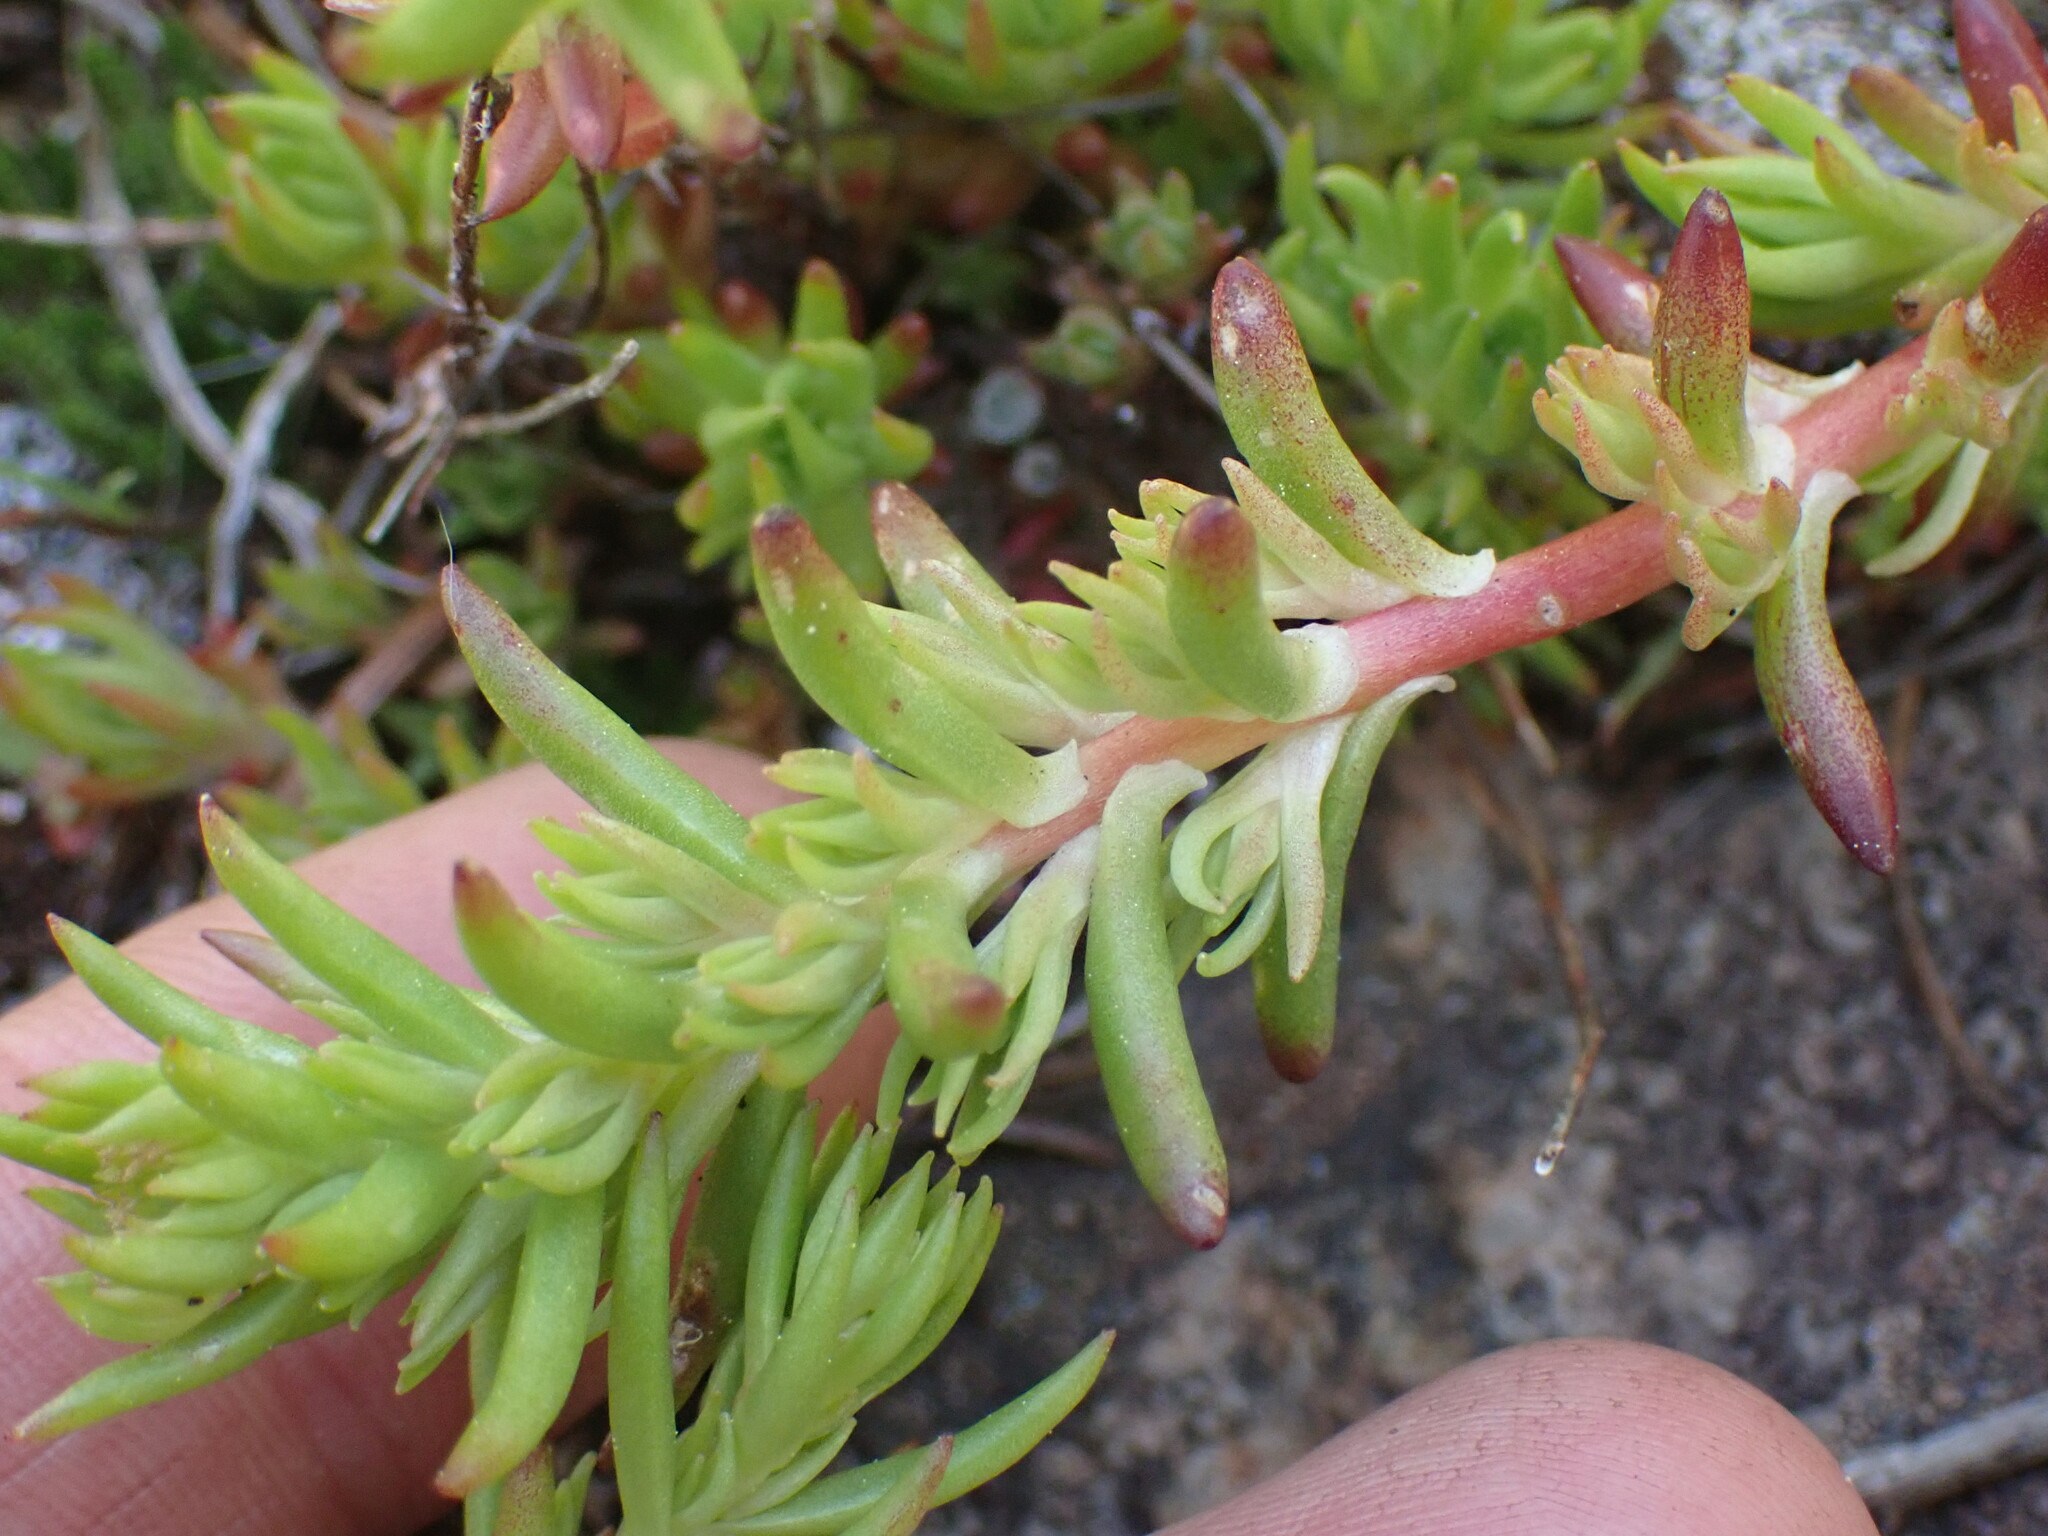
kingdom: Plantae
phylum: Tracheophyta
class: Magnoliopsida
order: Saxifragales
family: Crassulaceae
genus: Sedum
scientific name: Sedum stenopetalum
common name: Narrow-petaled stonecrop
